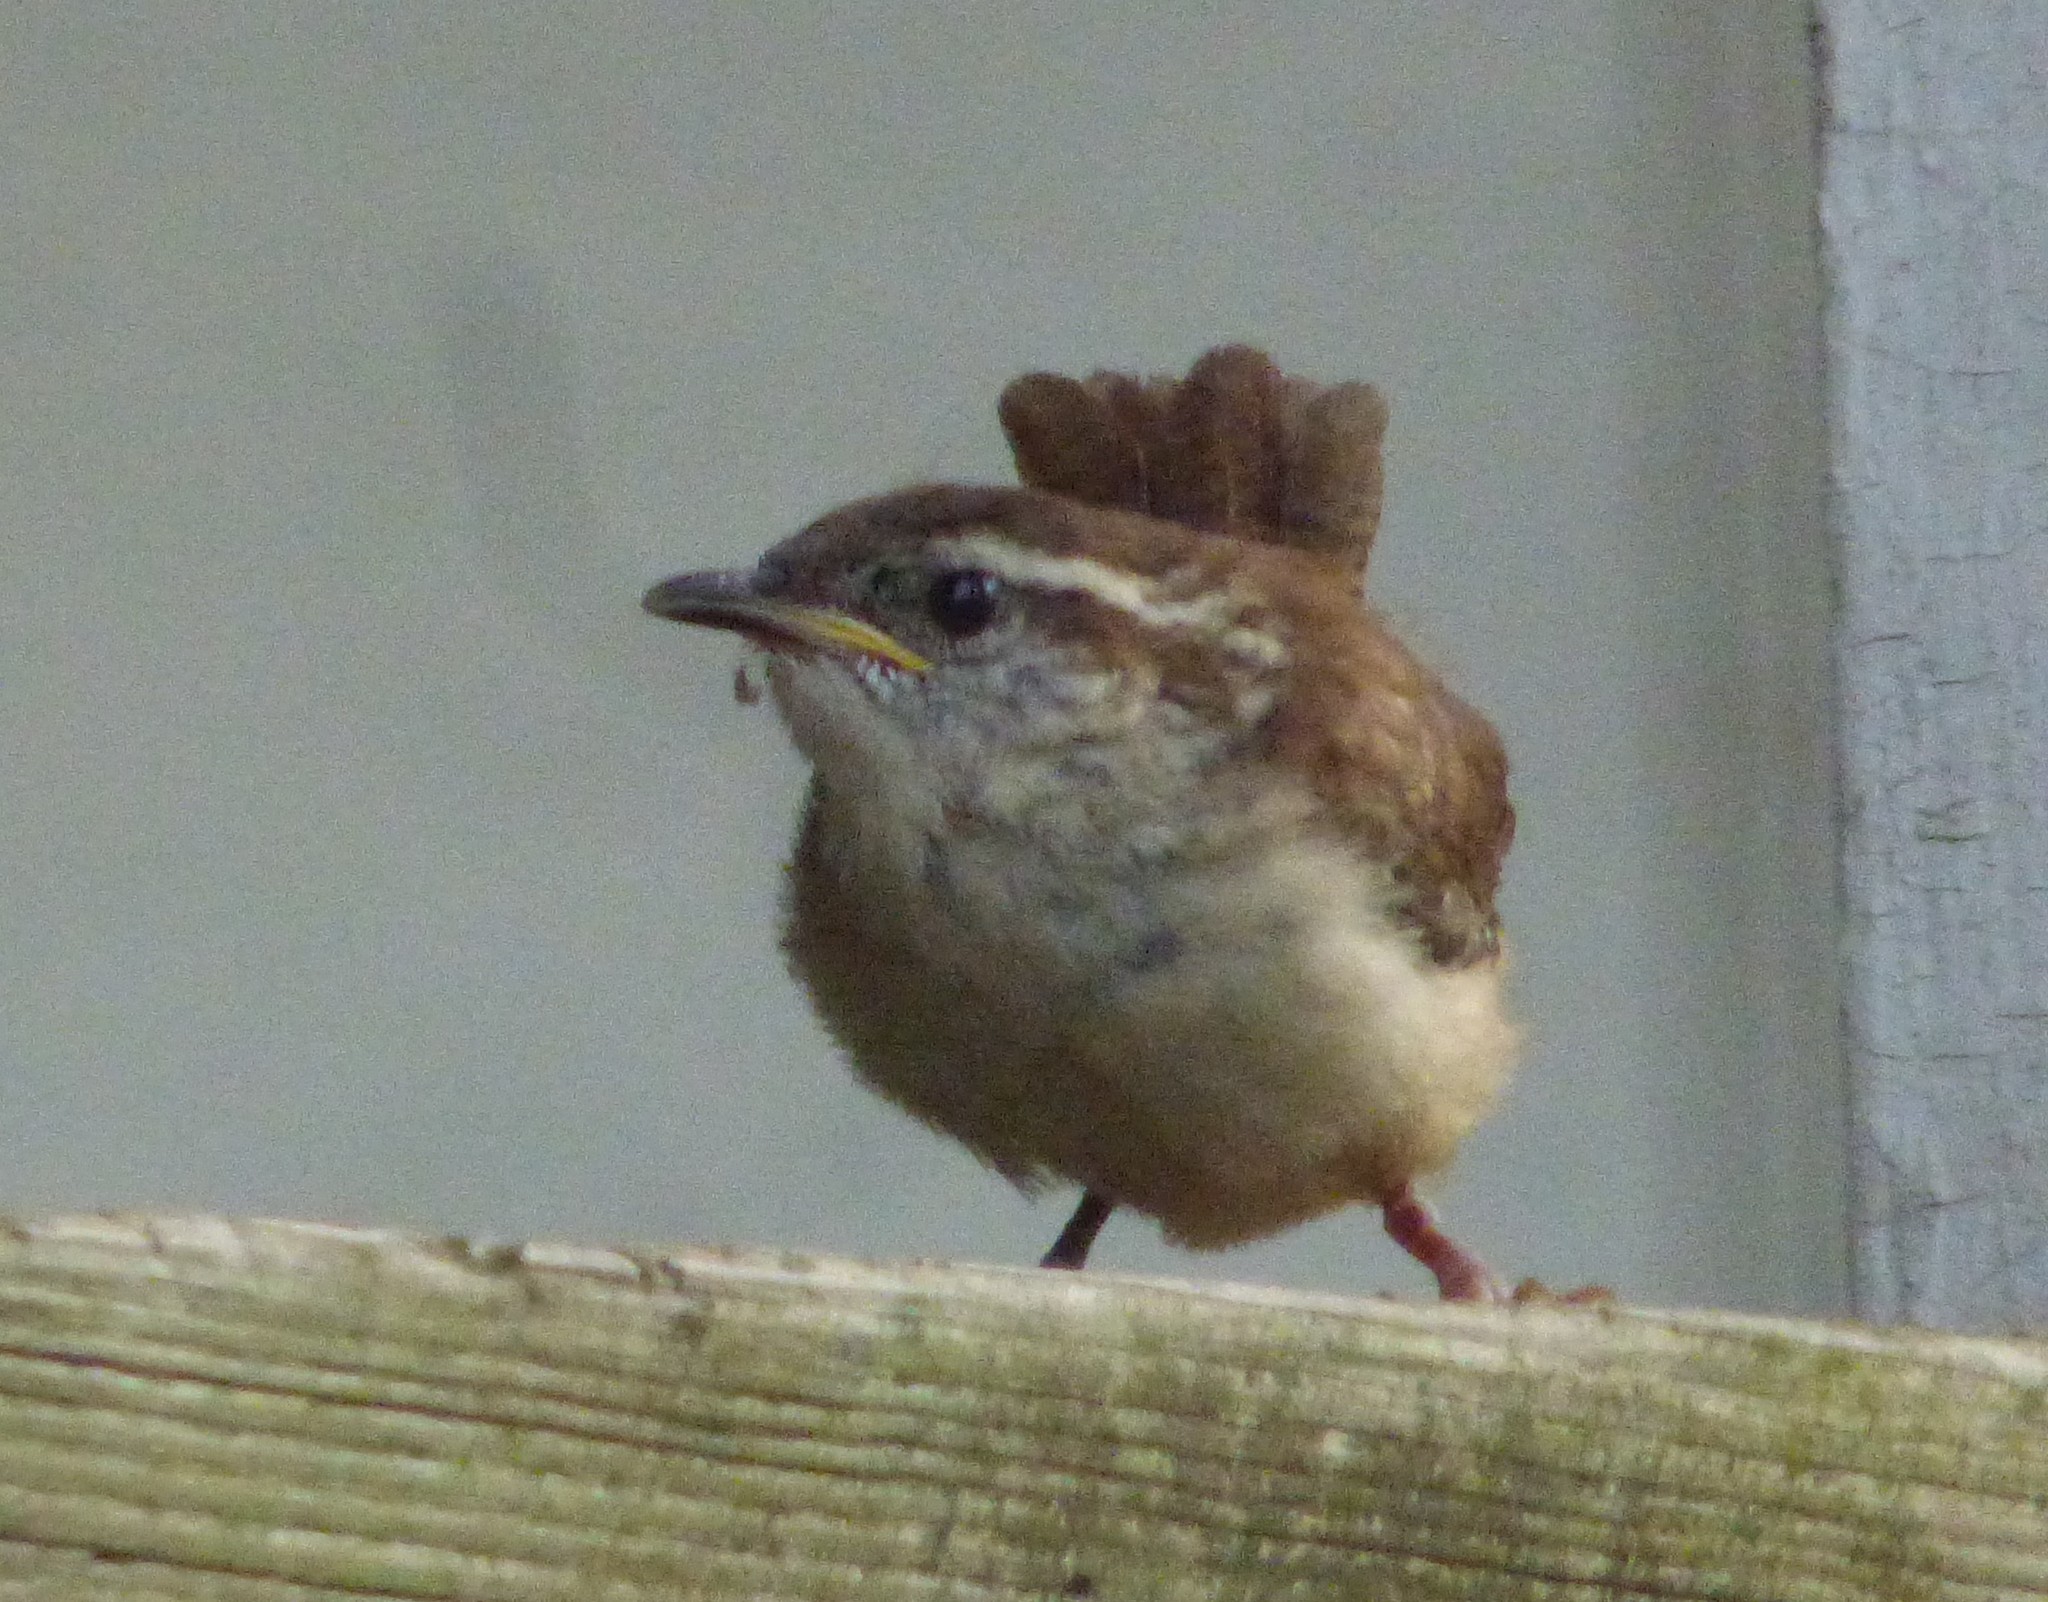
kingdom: Animalia
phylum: Chordata
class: Aves
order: Passeriformes
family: Troglodytidae
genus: Thryothorus
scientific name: Thryothorus ludovicianus
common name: Carolina wren
